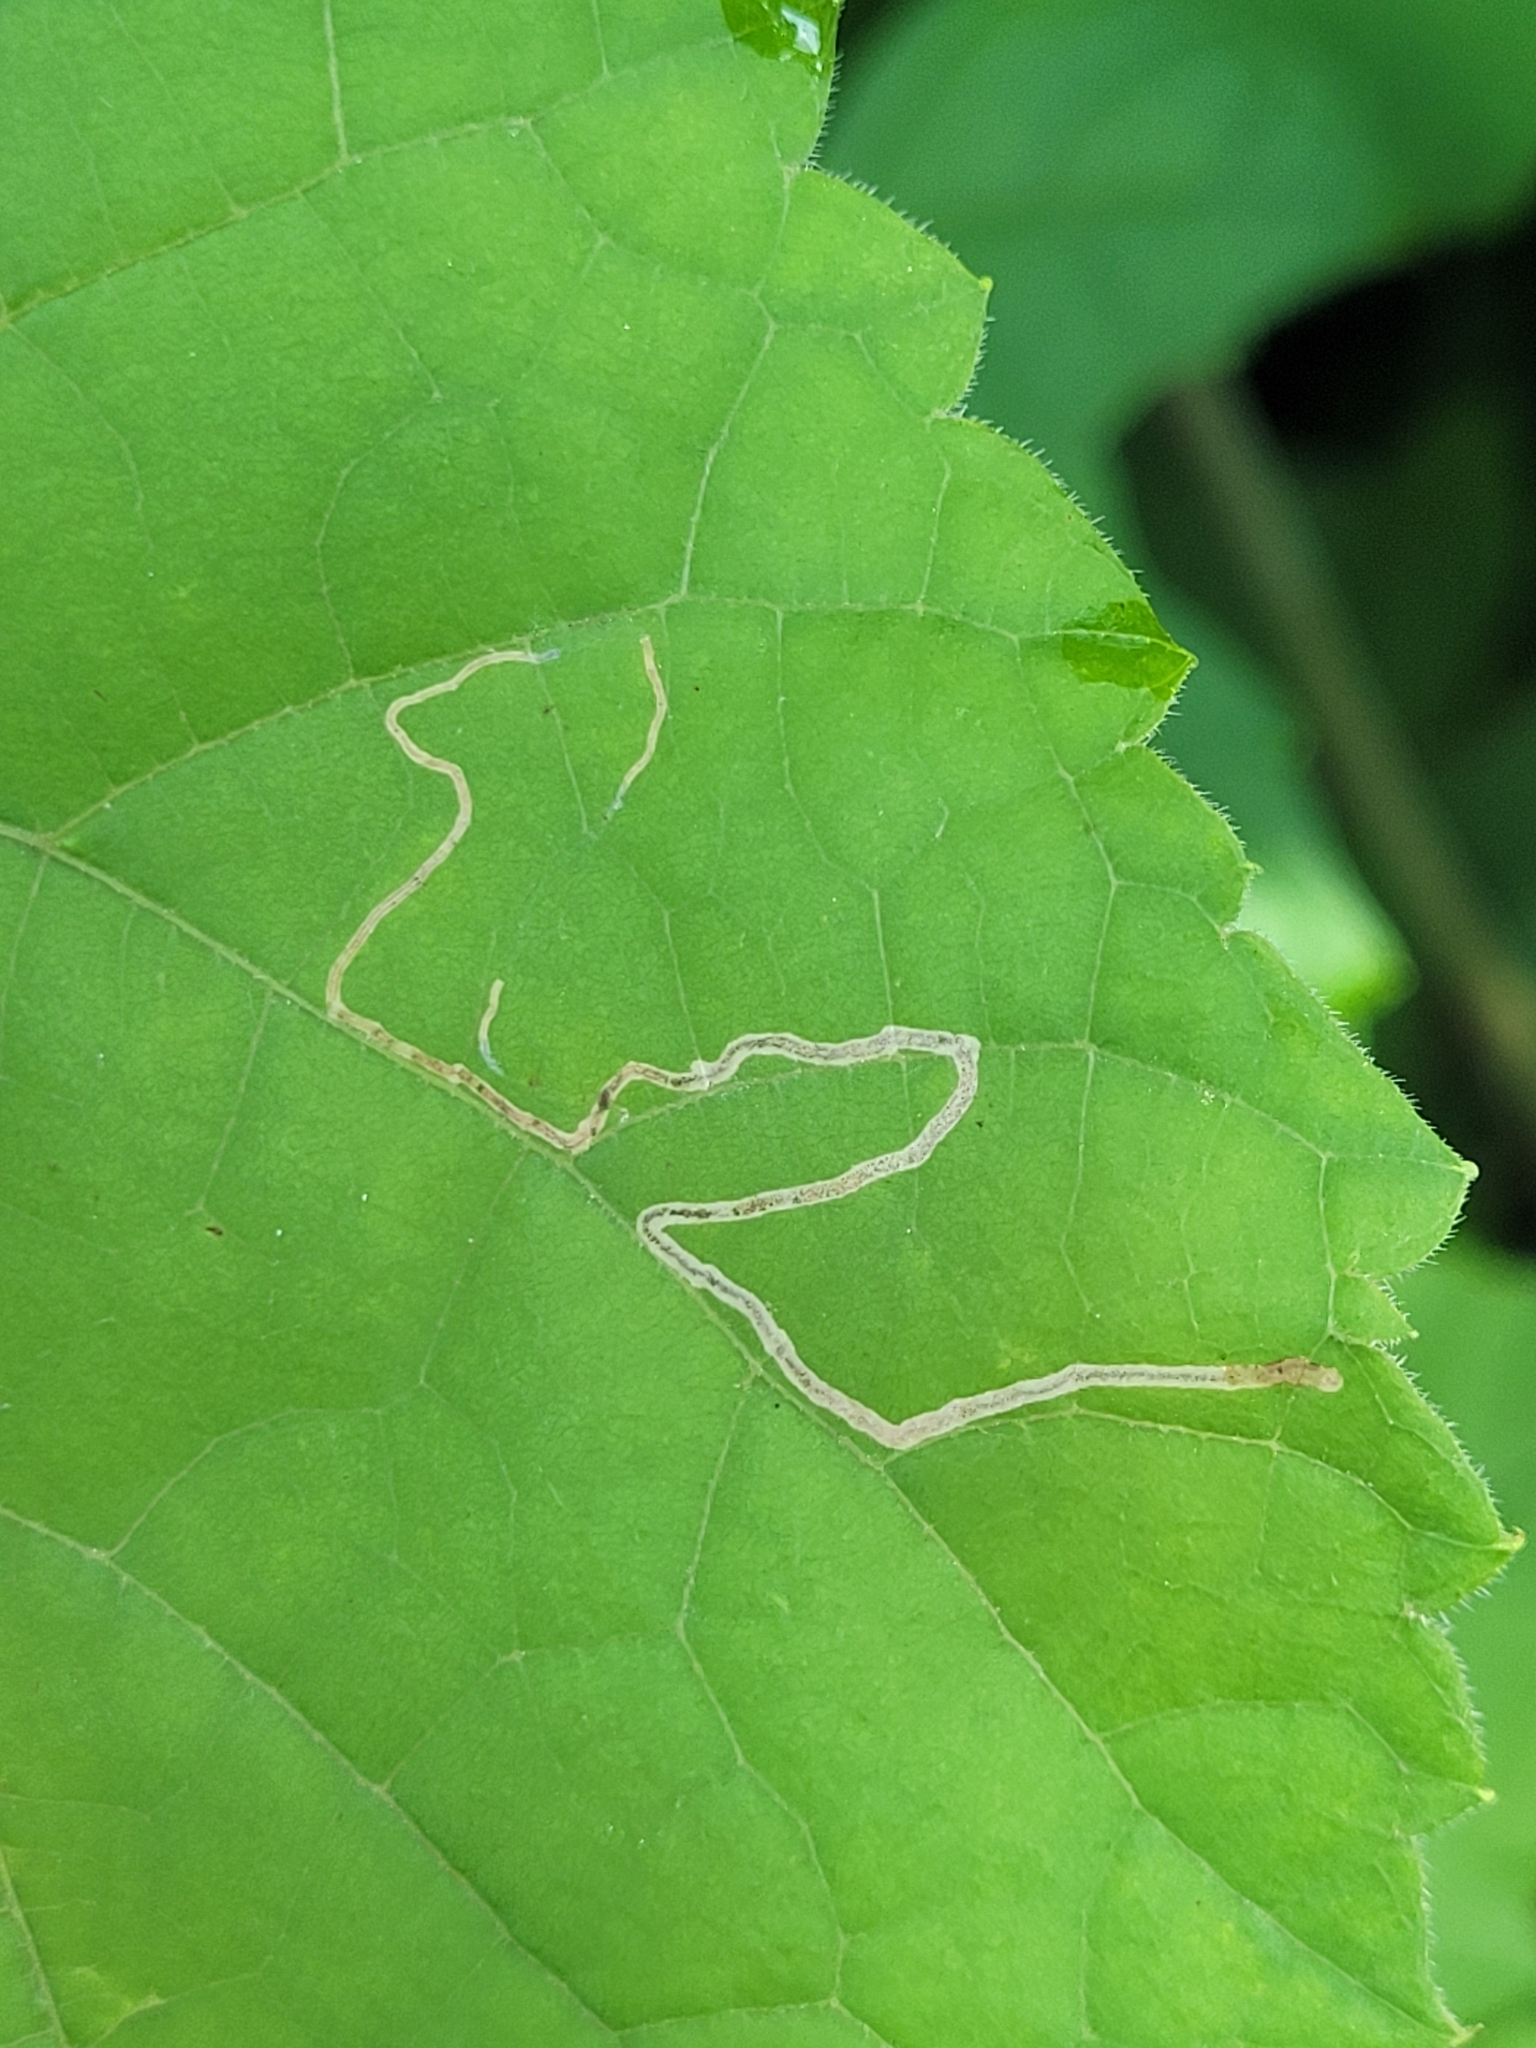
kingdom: Animalia
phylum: Arthropoda
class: Insecta
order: Lepidoptera
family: Gracillariidae
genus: Phyllocnistis
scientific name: Phyllocnistis vitifoliella
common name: Grape leaf-miner moth
